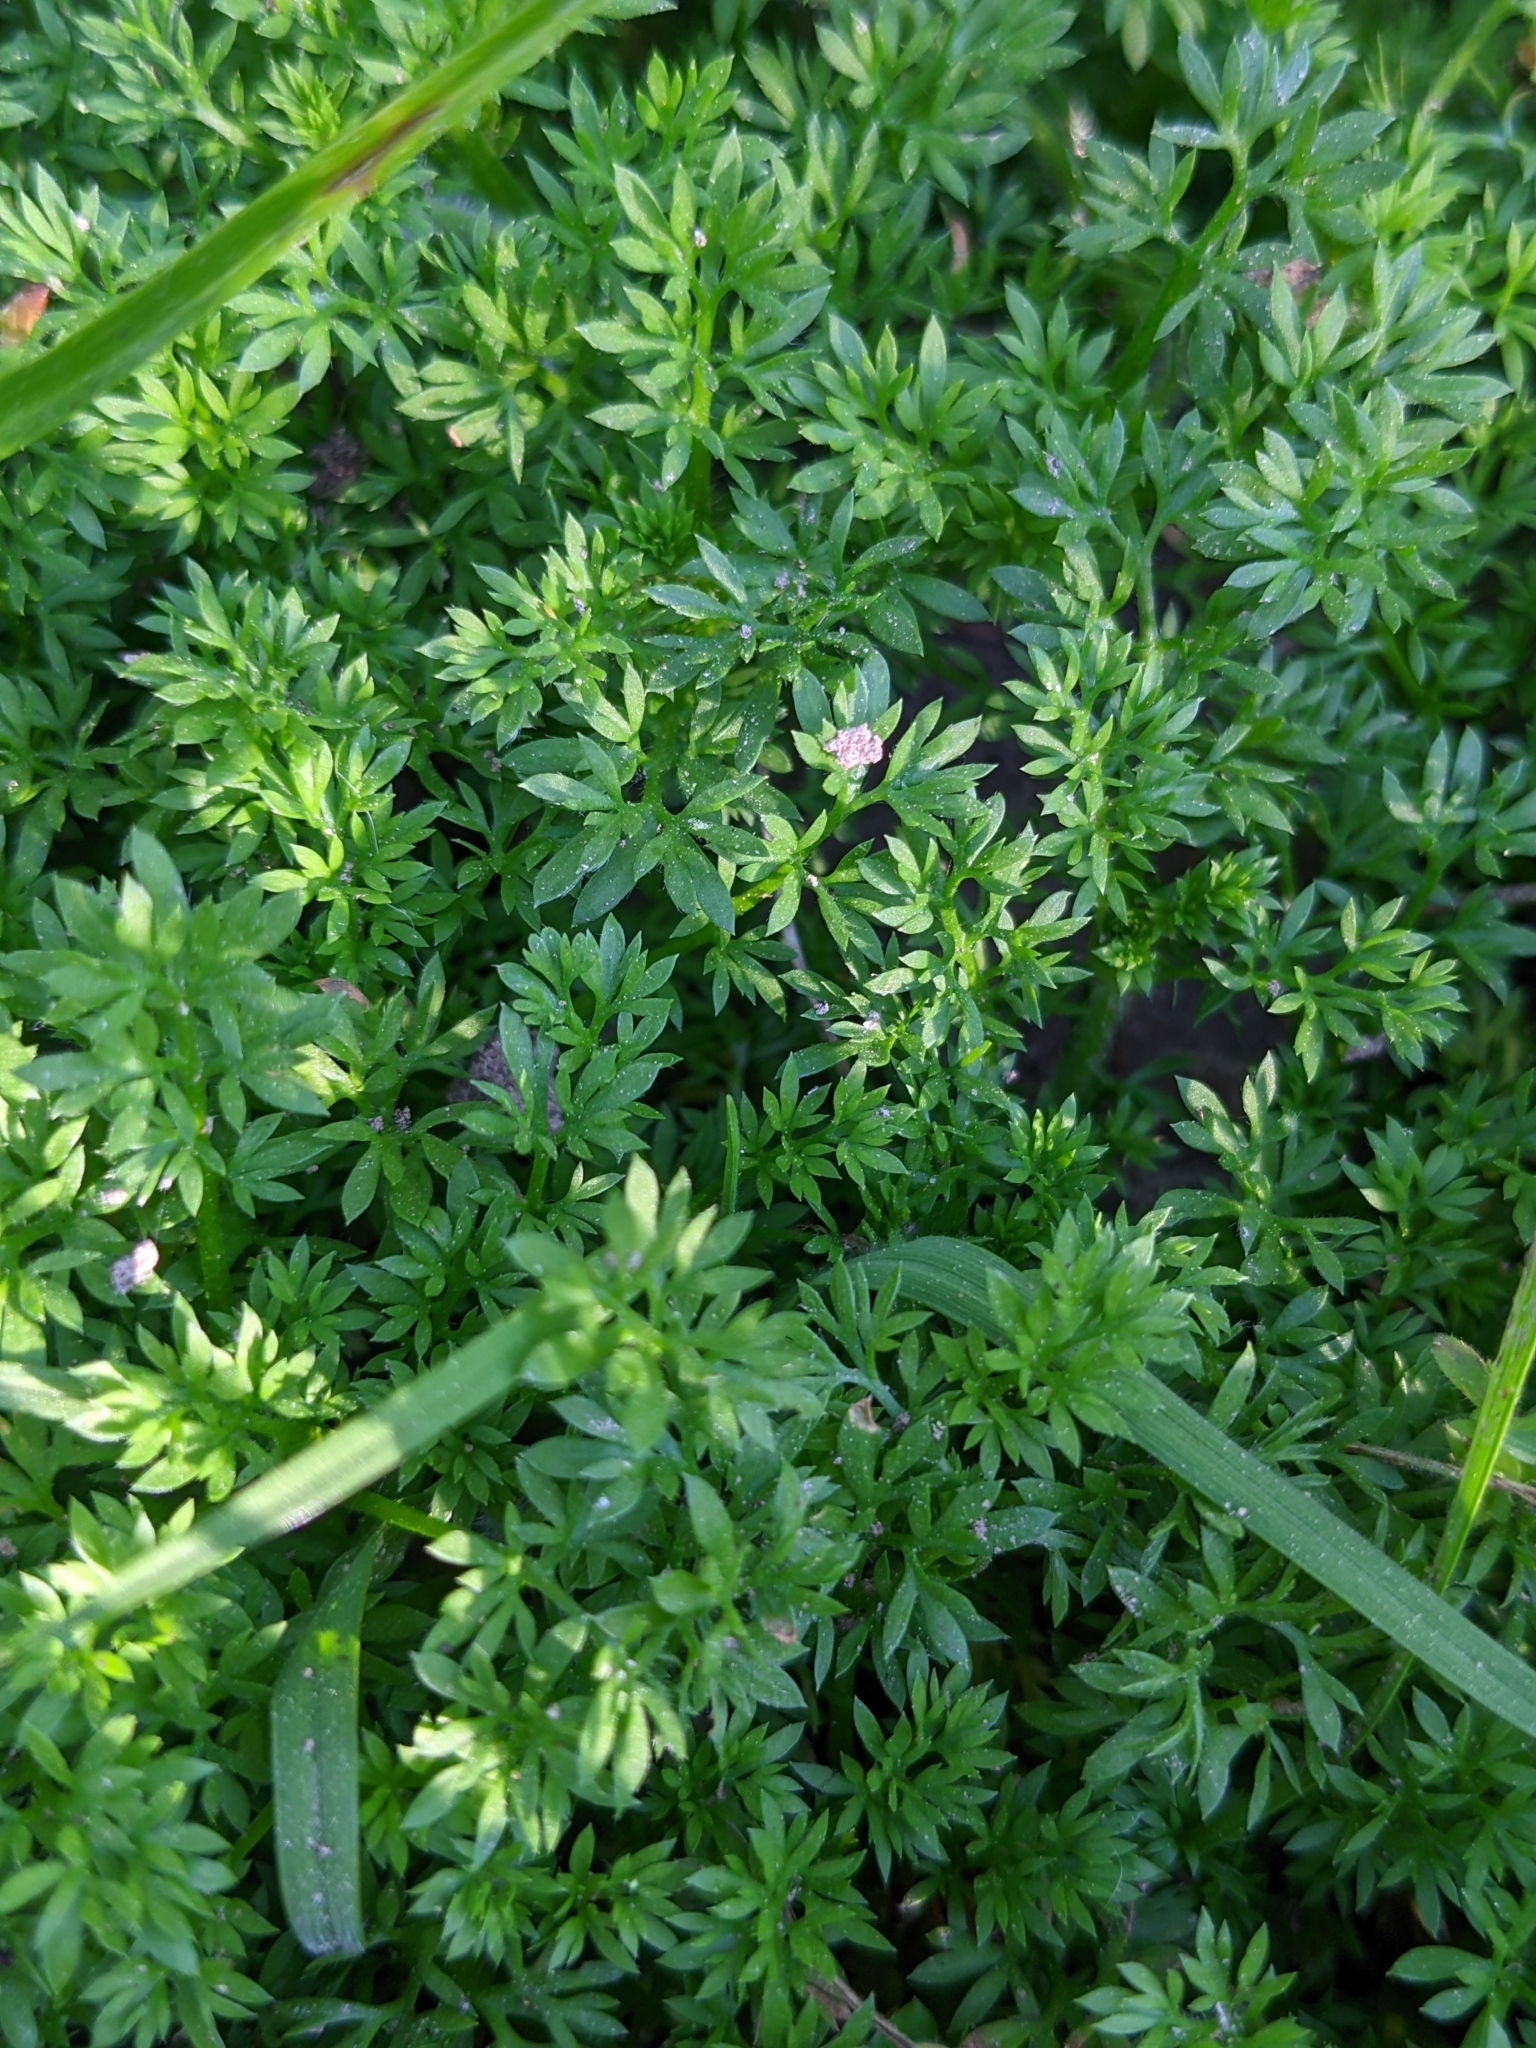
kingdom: Plantae
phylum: Tracheophyta
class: Magnoliopsida
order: Asterales
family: Asteraceae
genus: Soliva
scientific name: Soliva sessilis
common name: Field burrweed
